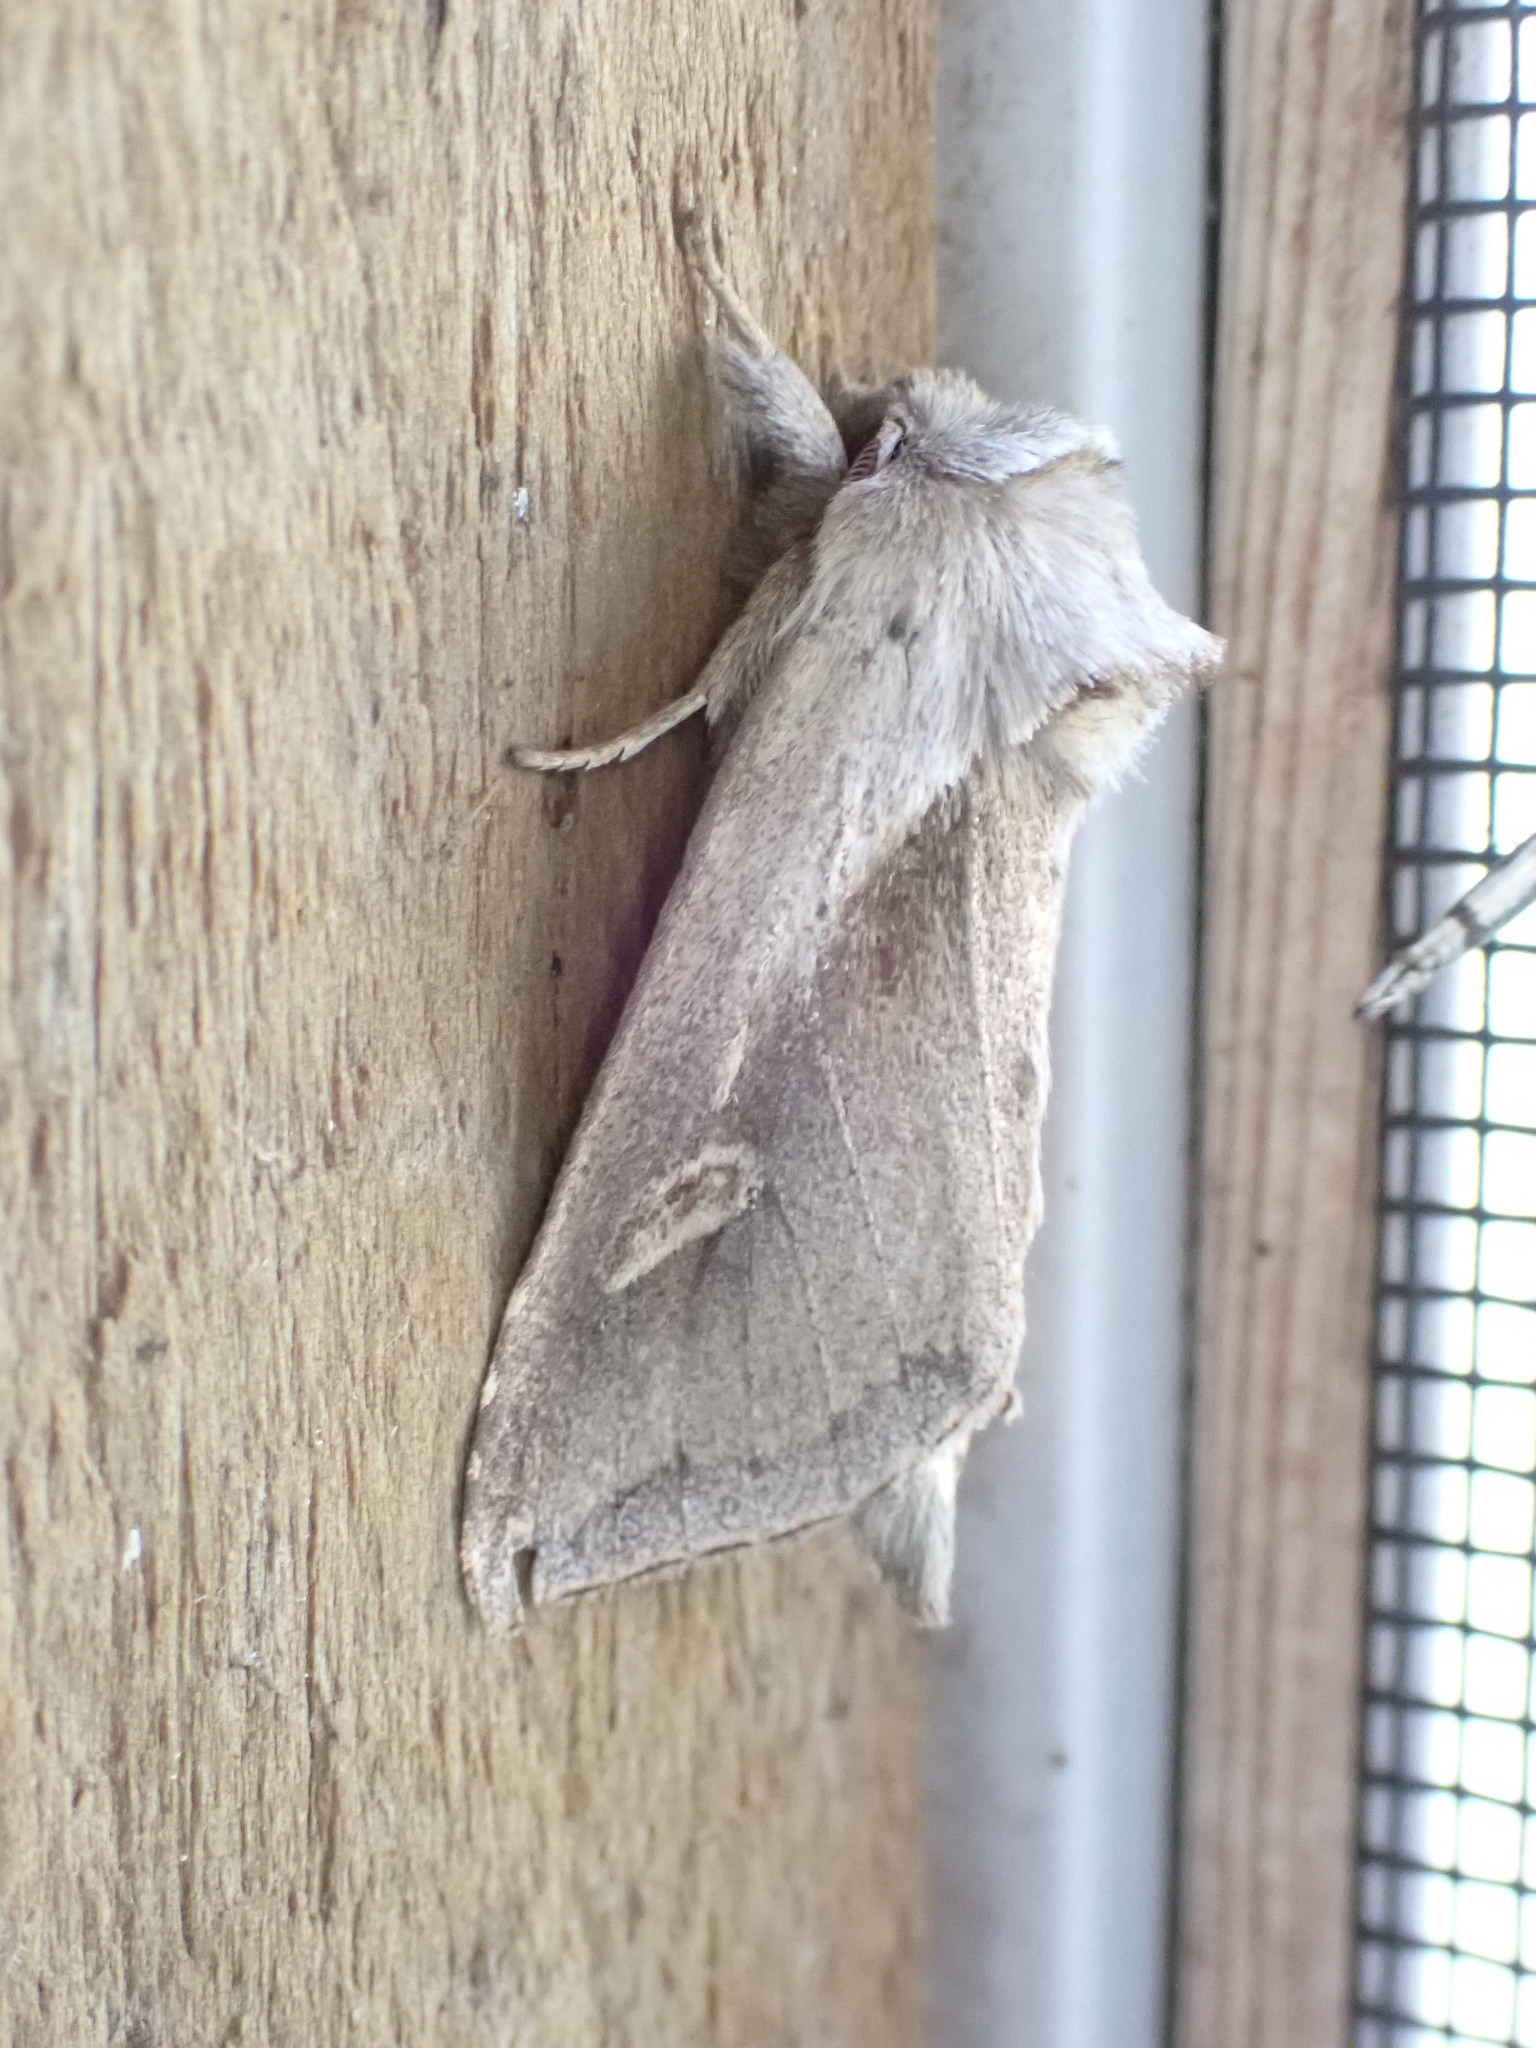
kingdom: Animalia
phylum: Arthropoda
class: Insecta
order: Lepidoptera
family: Noctuidae
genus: Bellura
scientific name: Bellura obliqua
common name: Cattail borer moth
